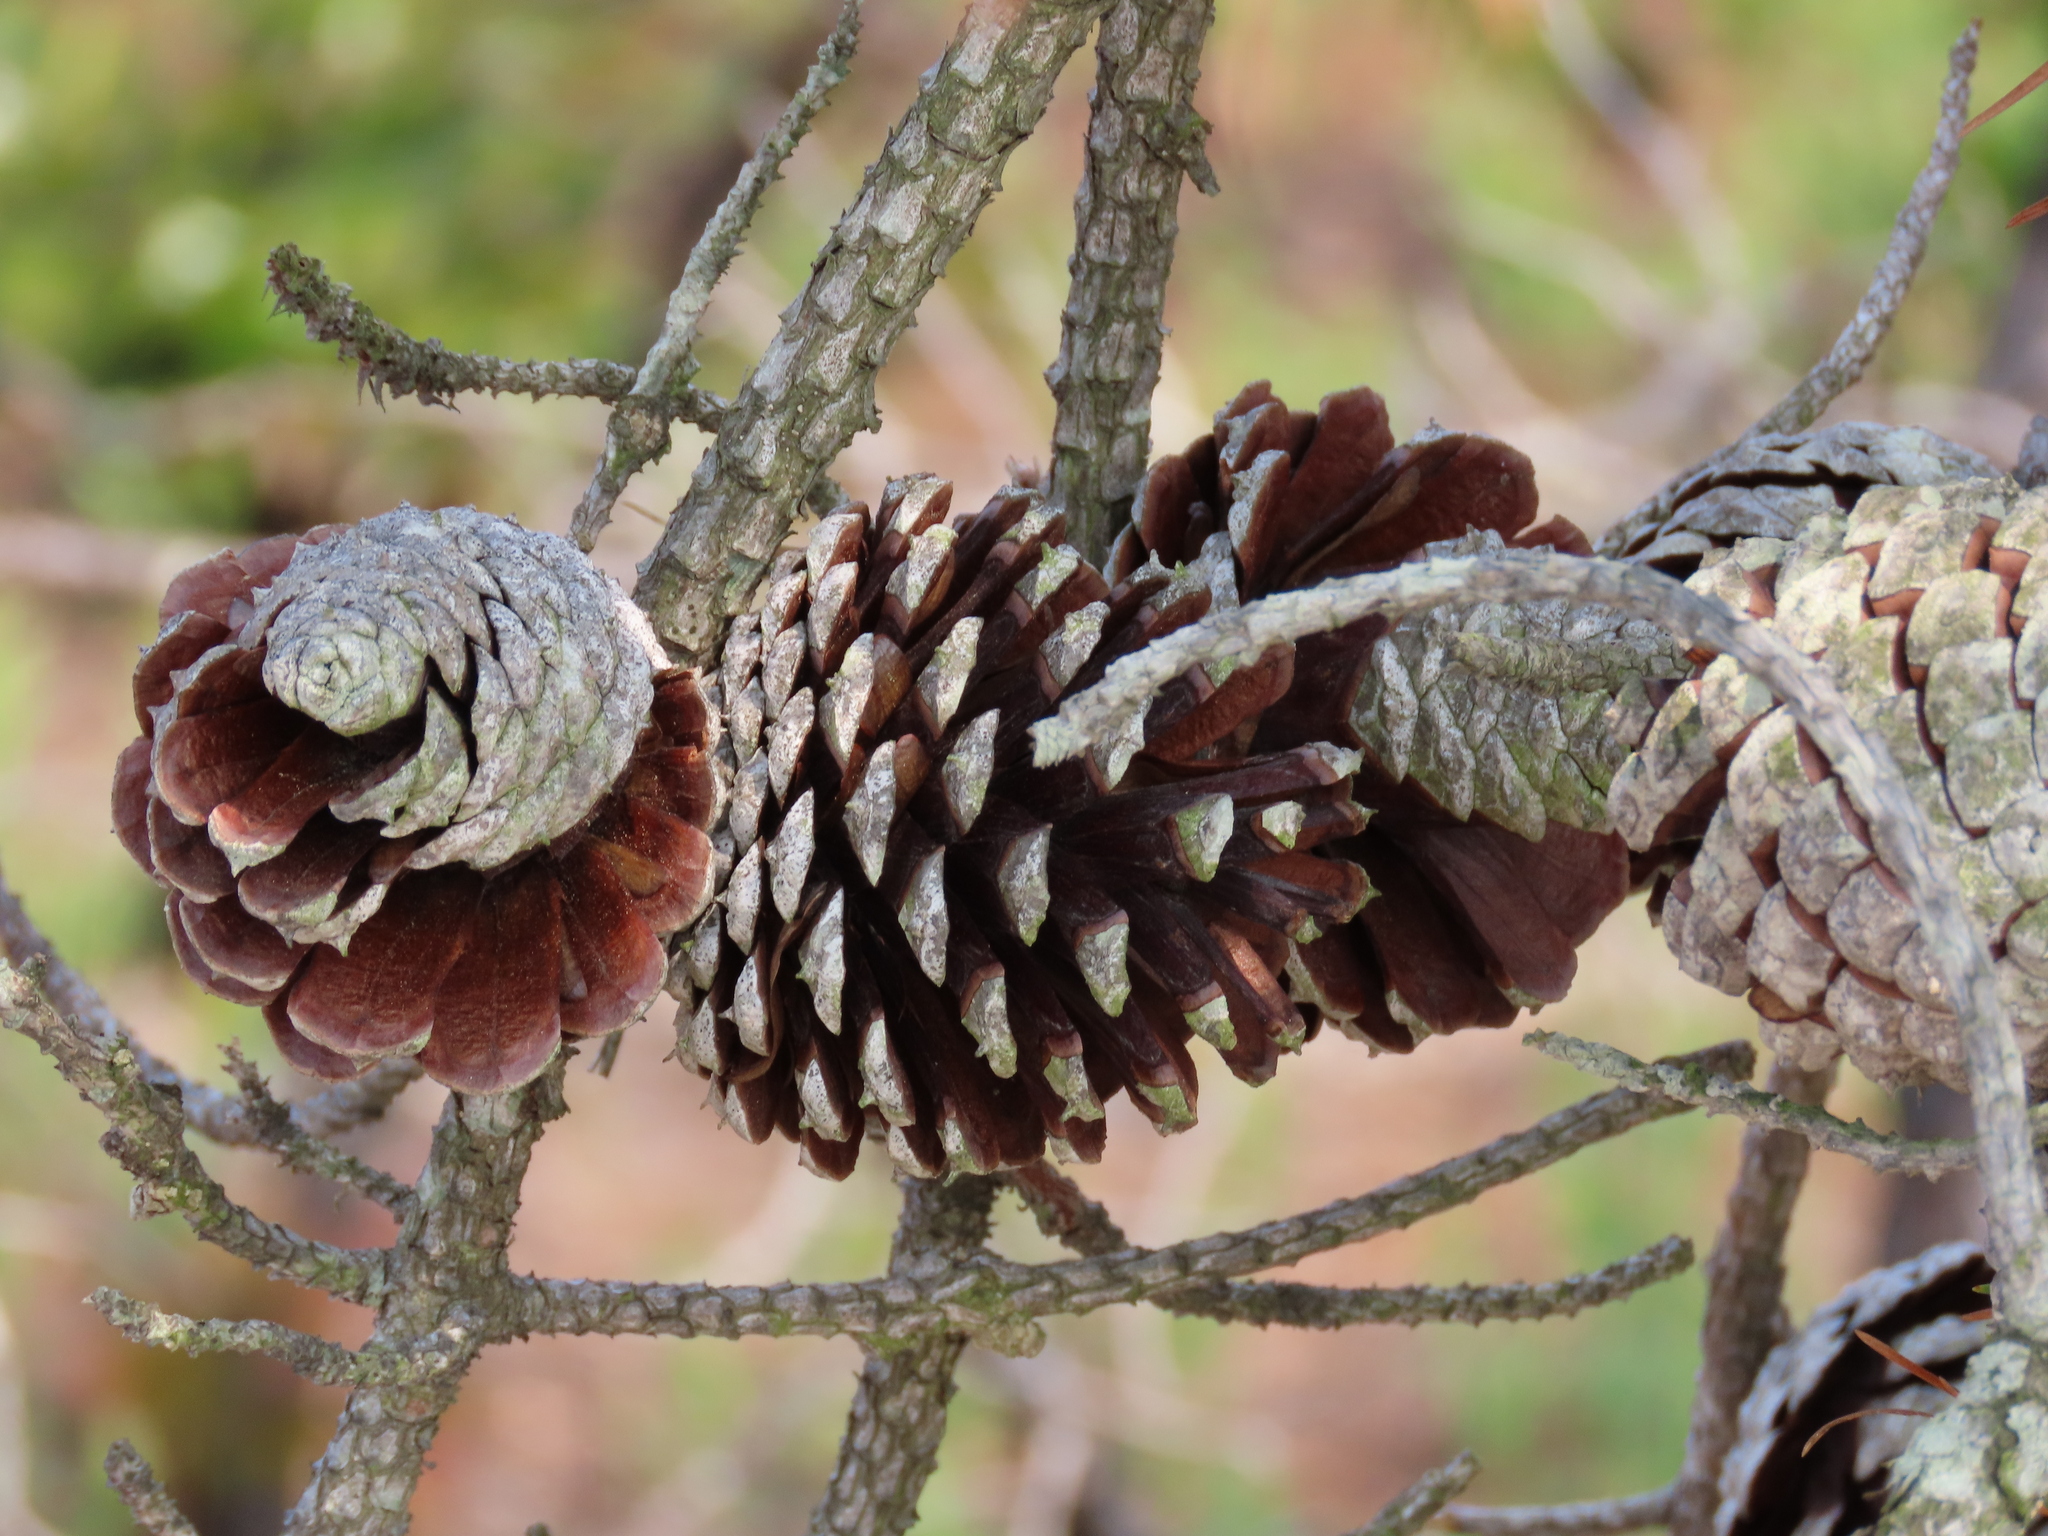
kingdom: Plantae
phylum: Tracheophyta
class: Pinopsida
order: Pinales
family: Pinaceae
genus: Pinus
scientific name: Pinus rigida
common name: Pitch pine
